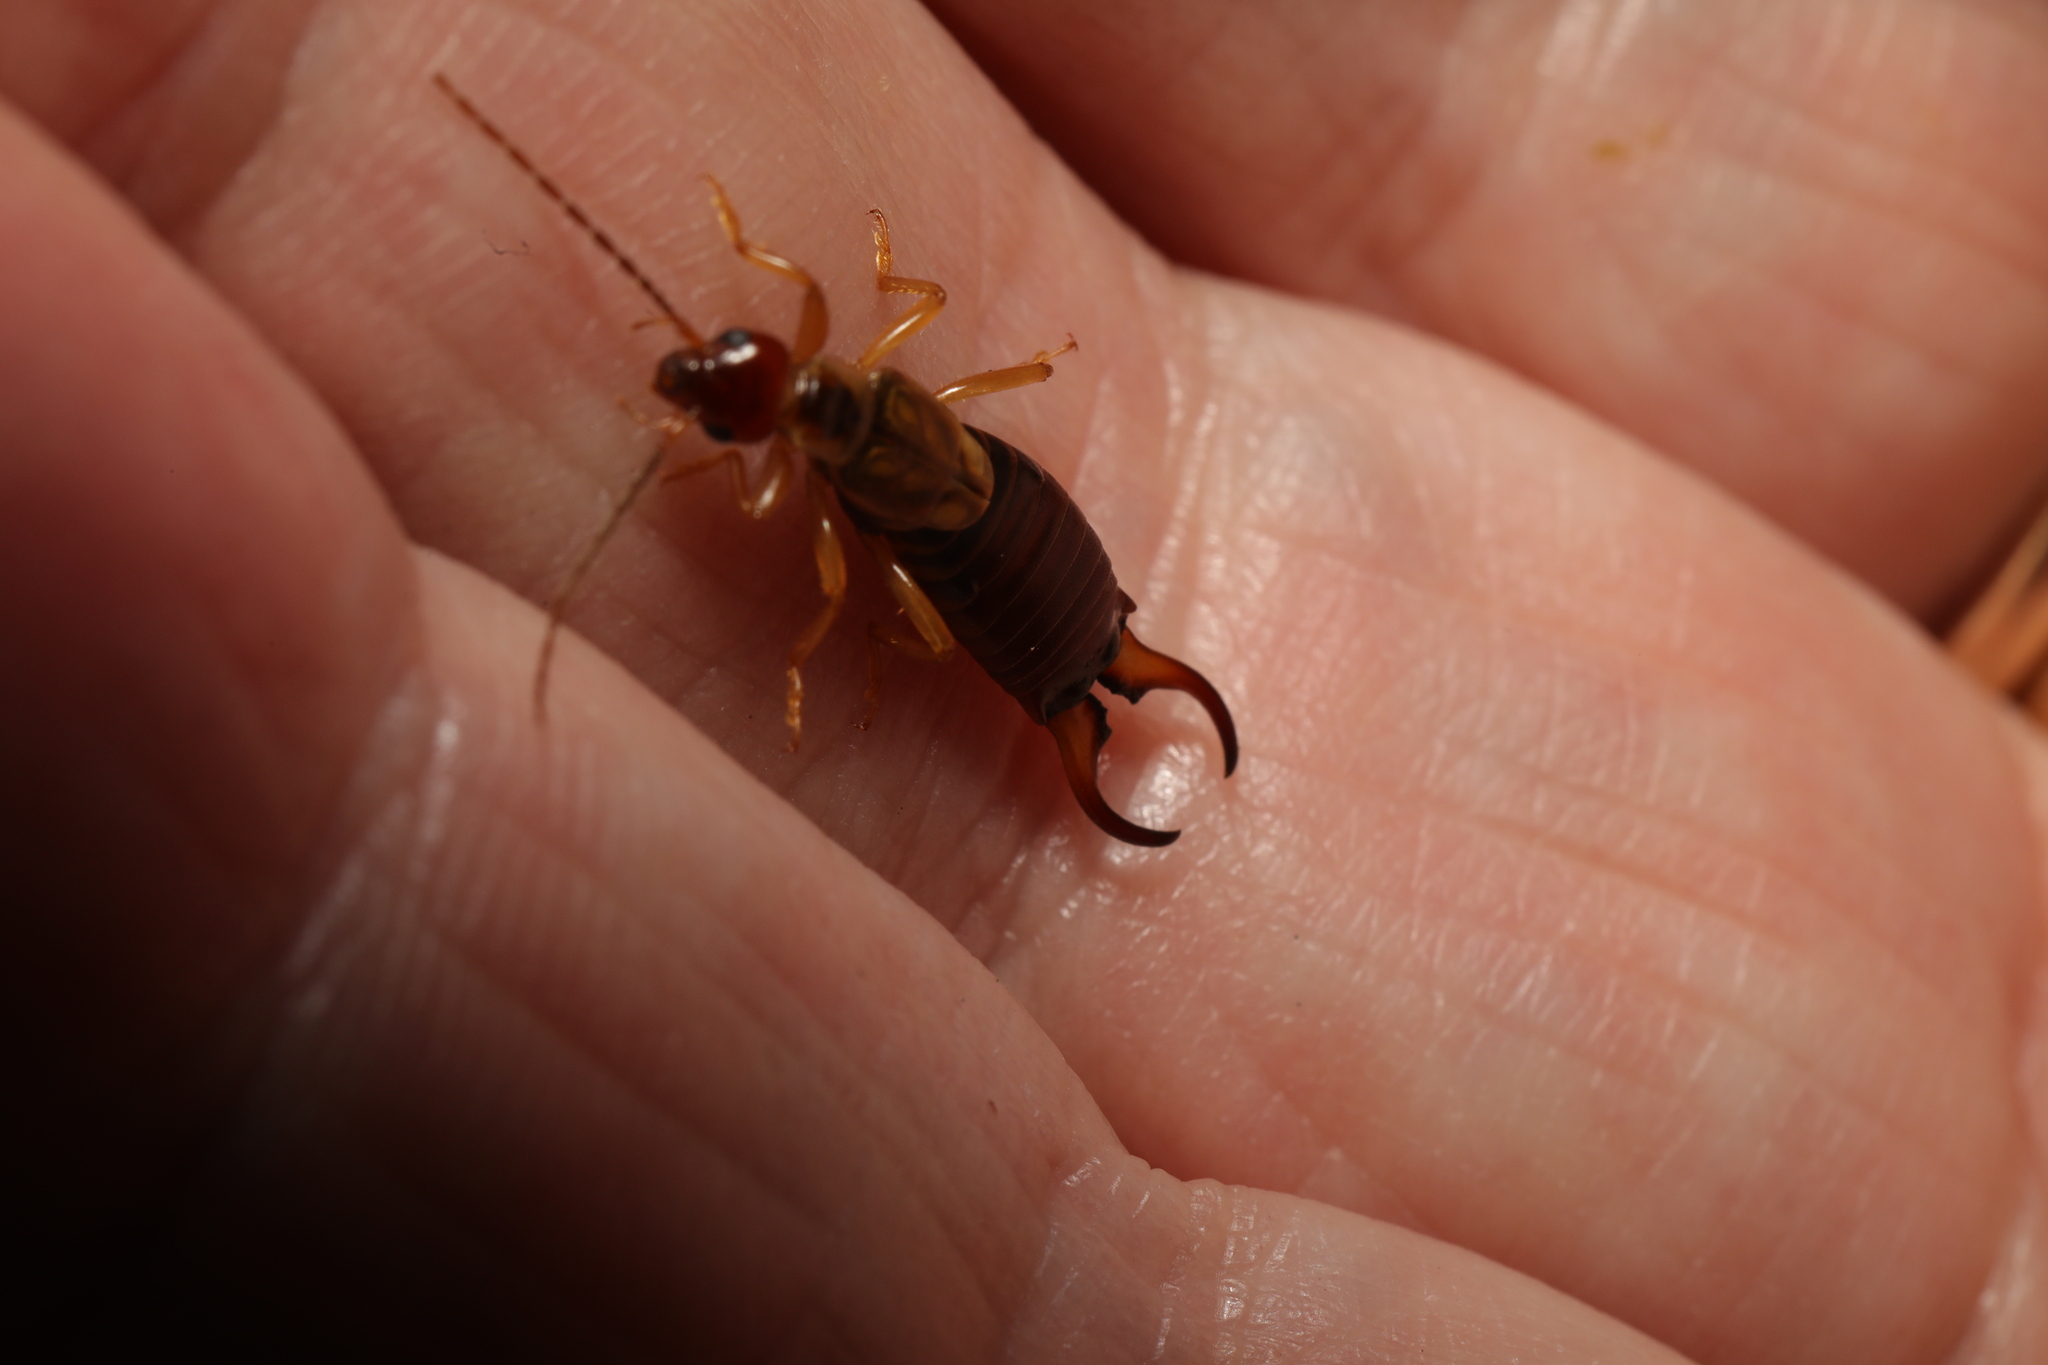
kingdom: Animalia
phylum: Arthropoda
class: Insecta
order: Dermaptera
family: Forficulidae
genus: Forficula
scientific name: Forficula
